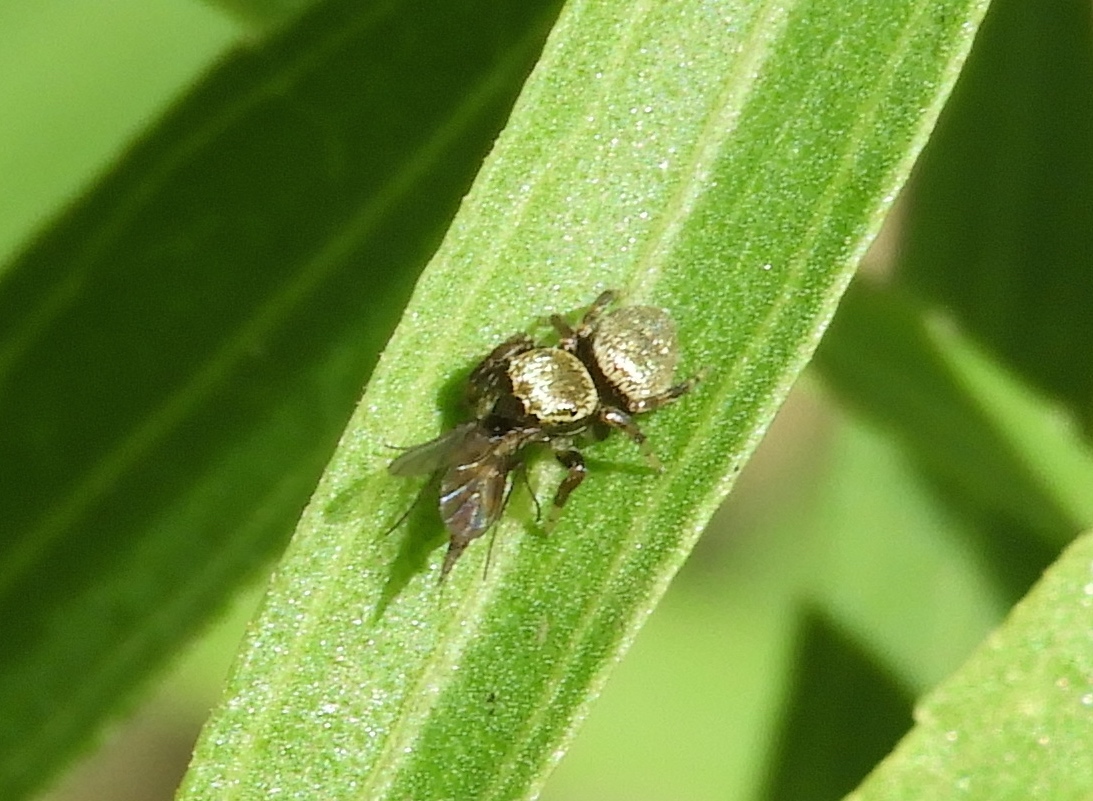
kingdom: Animalia
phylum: Arthropoda
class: Arachnida
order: Araneae
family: Salticidae
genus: Messua
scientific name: Messua limbata
